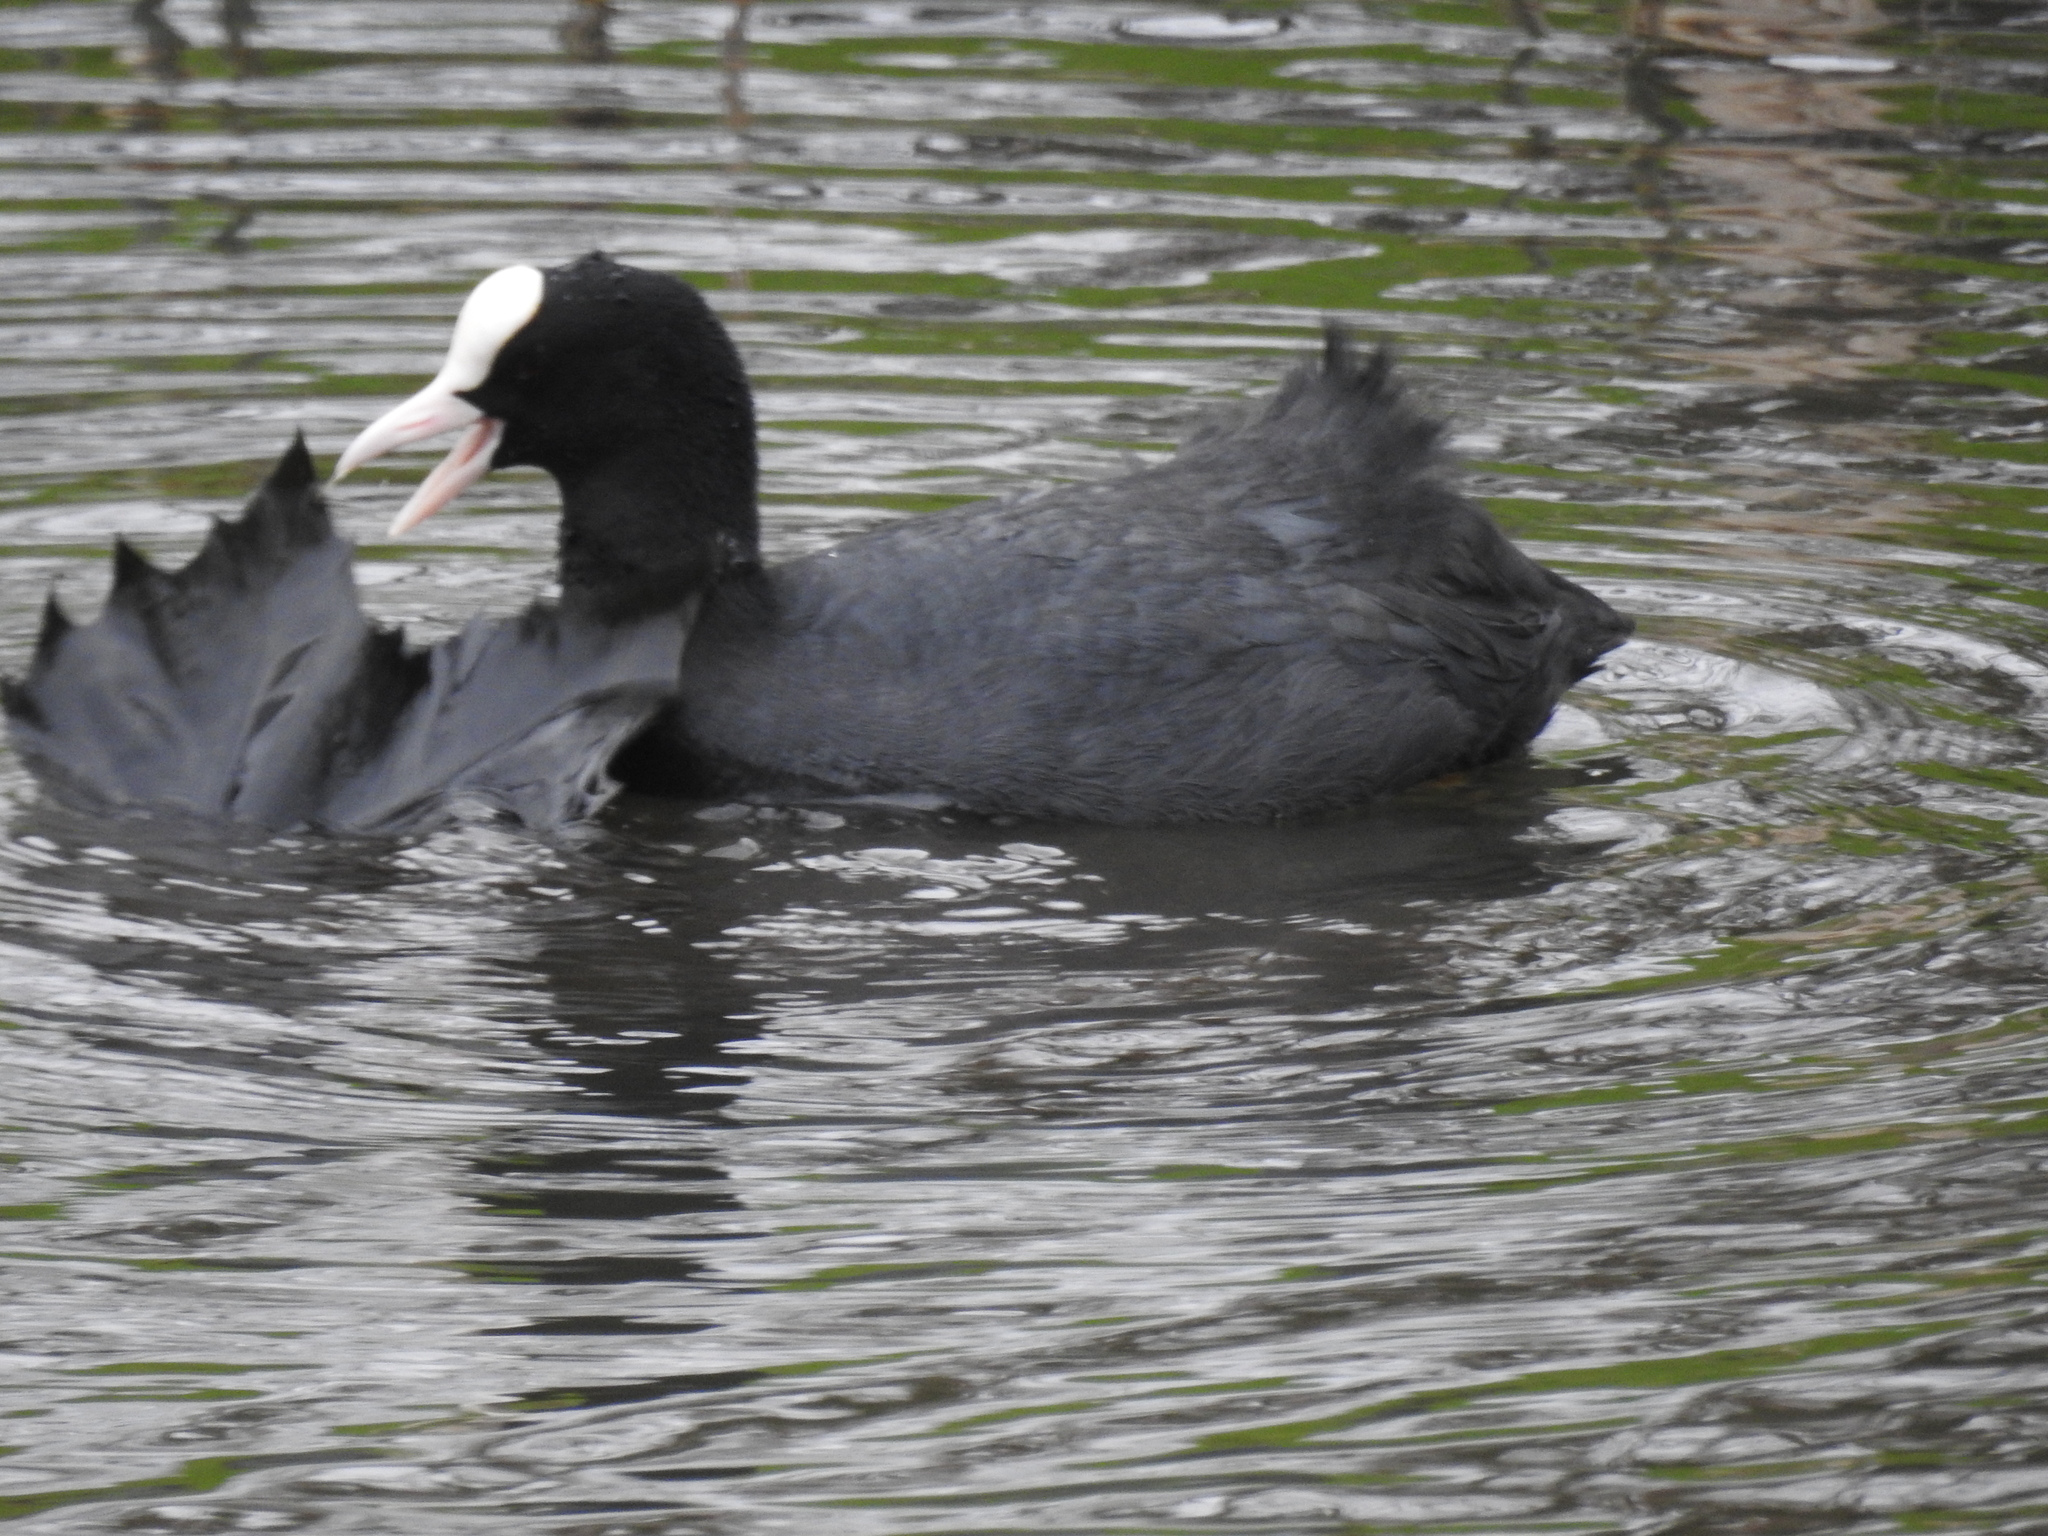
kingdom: Animalia
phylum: Chordata
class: Aves
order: Gruiformes
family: Rallidae
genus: Fulica
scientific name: Fulica atra
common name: Eurasian coot
